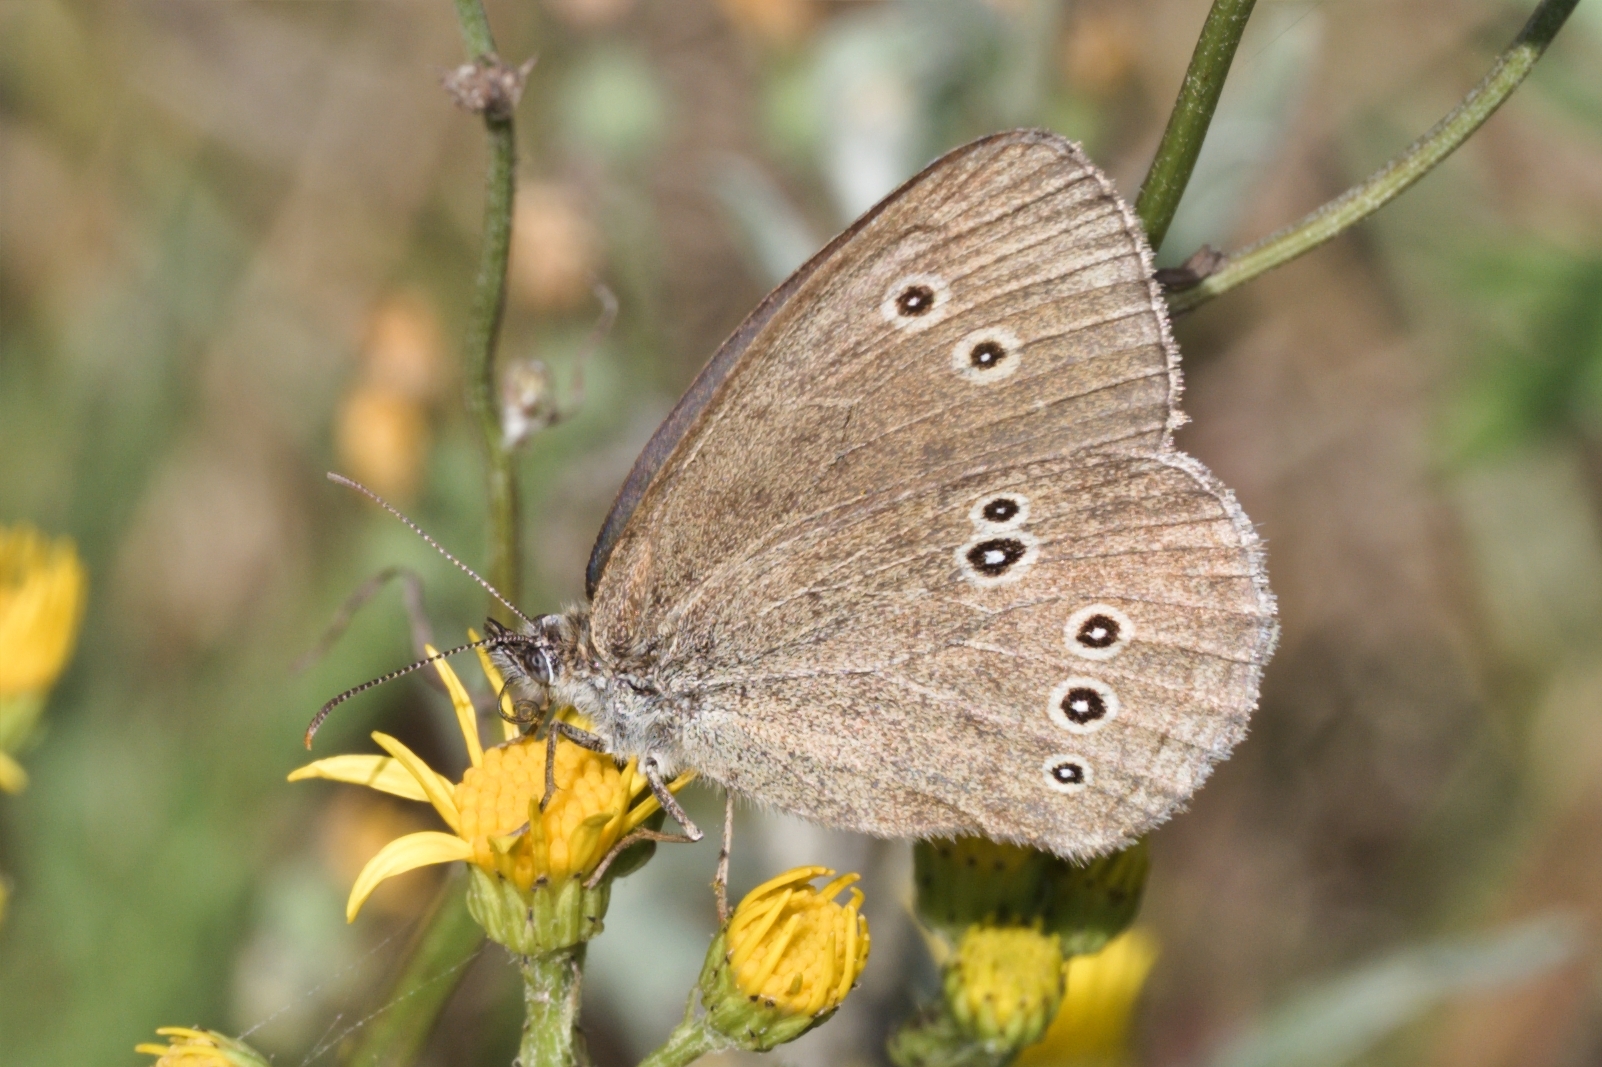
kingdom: Animalia
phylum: Arthropoda
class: Insecta
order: Lepidoptera
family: Nymphalidae
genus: Aphantopus
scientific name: Aphantopus hyperantus
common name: Ringlet
